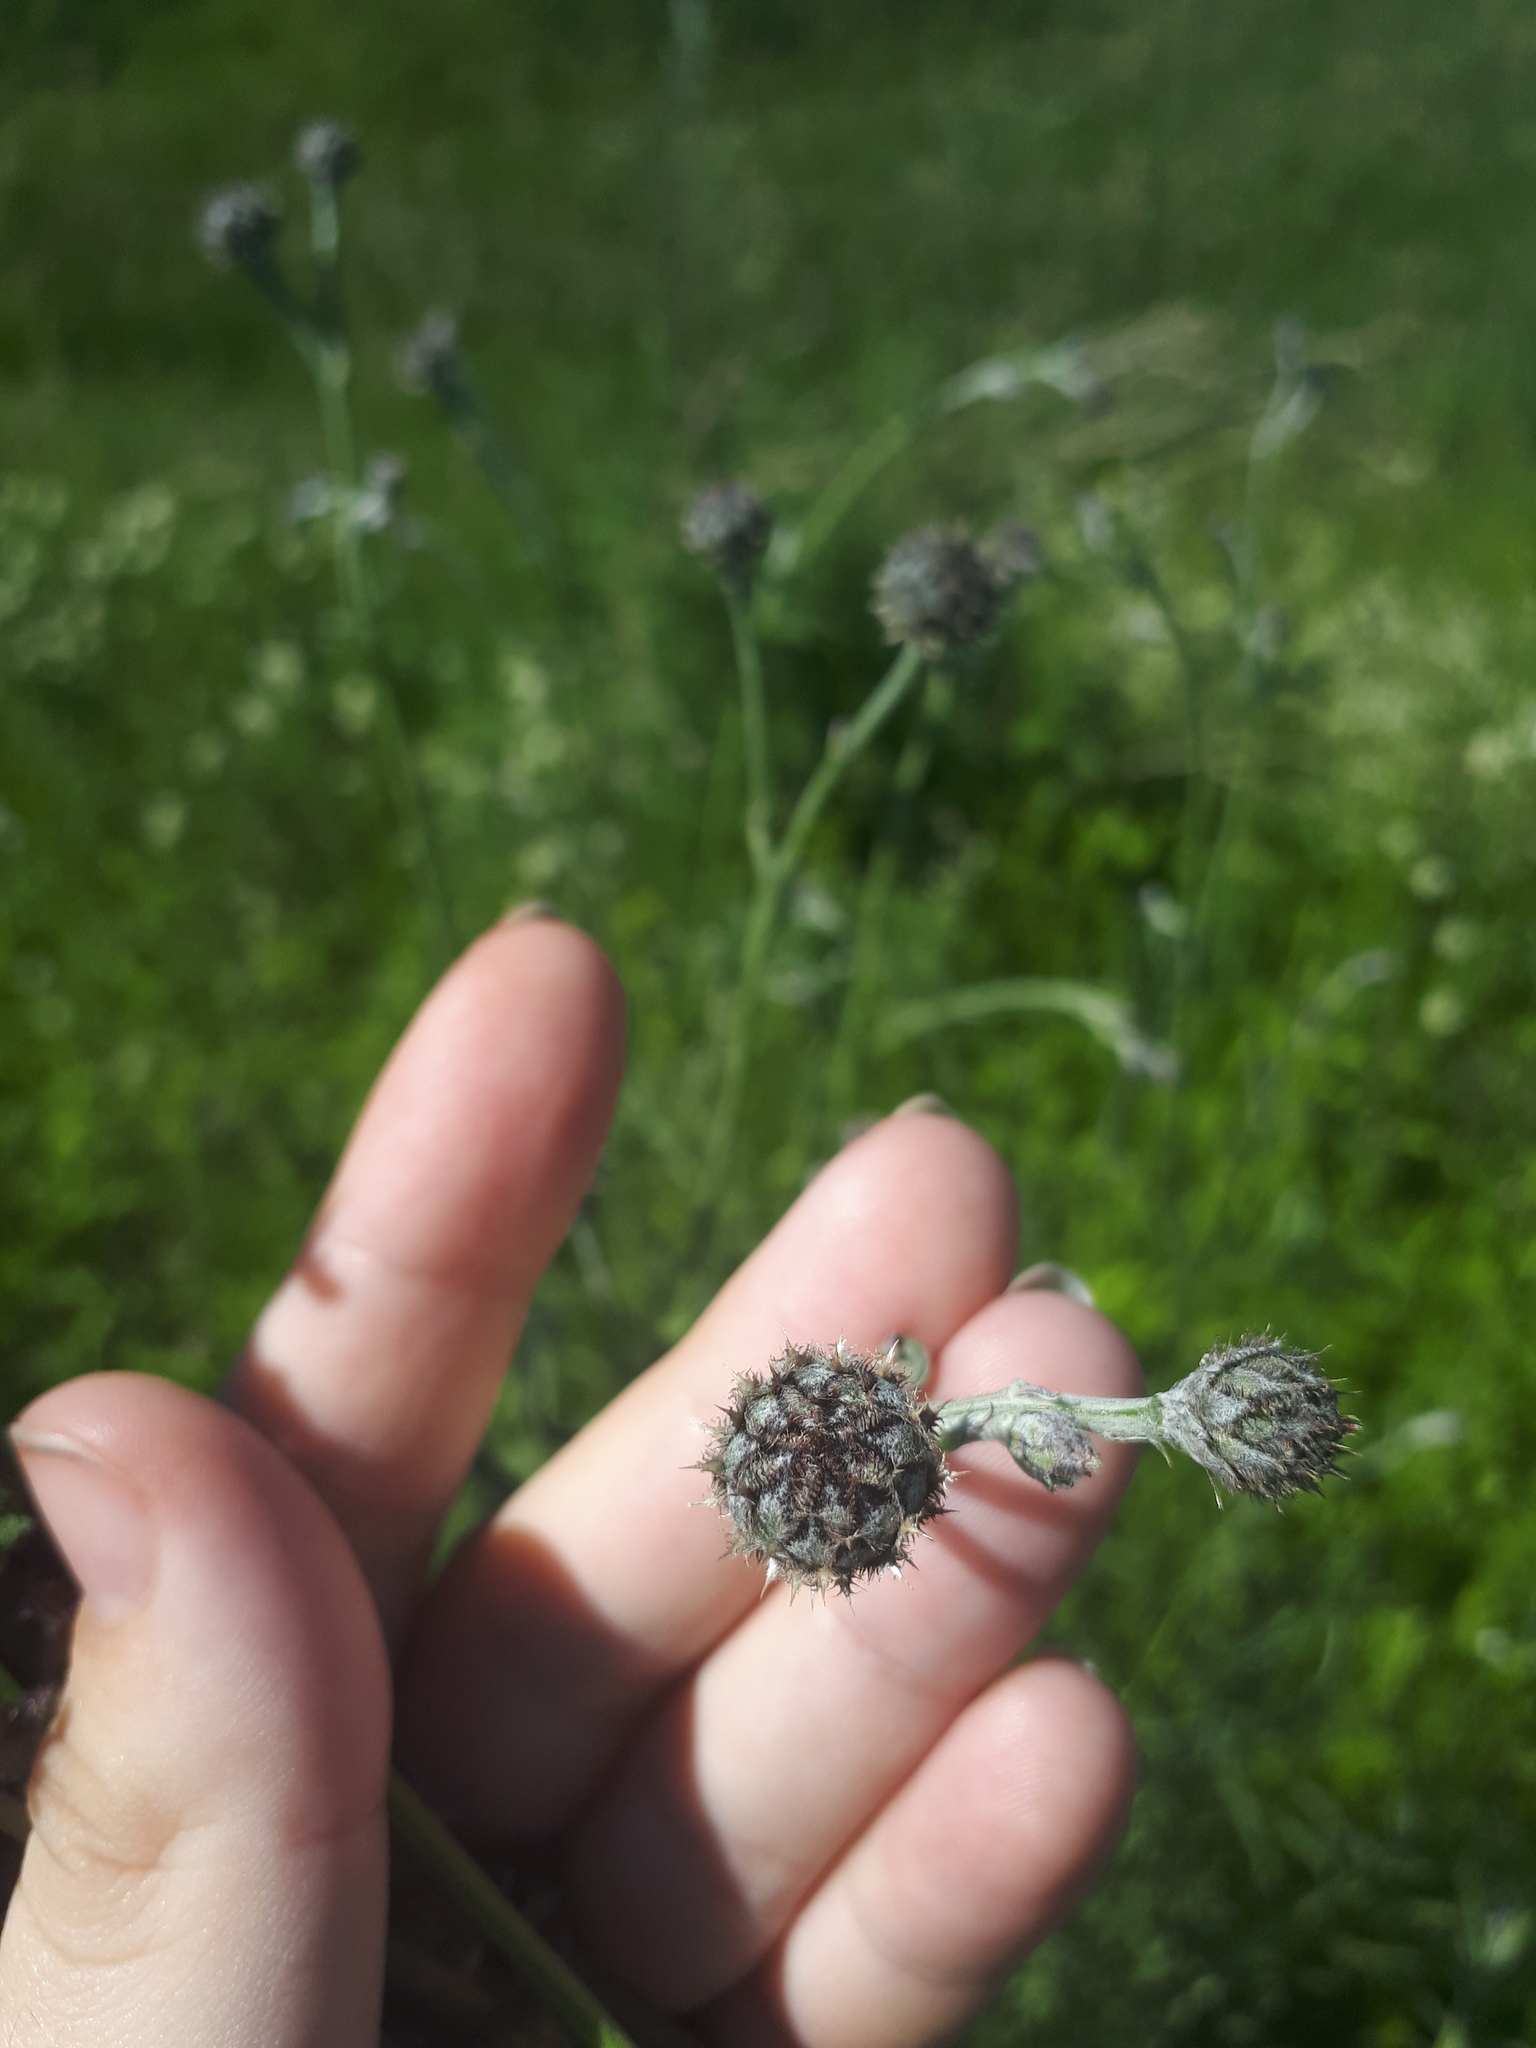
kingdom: Plantae
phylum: Tracheophyta
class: Magnoliopsida
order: Asterales
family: Asteraceae
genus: Centaurea
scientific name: Centaurea scabiosa
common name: Greater knapweed
